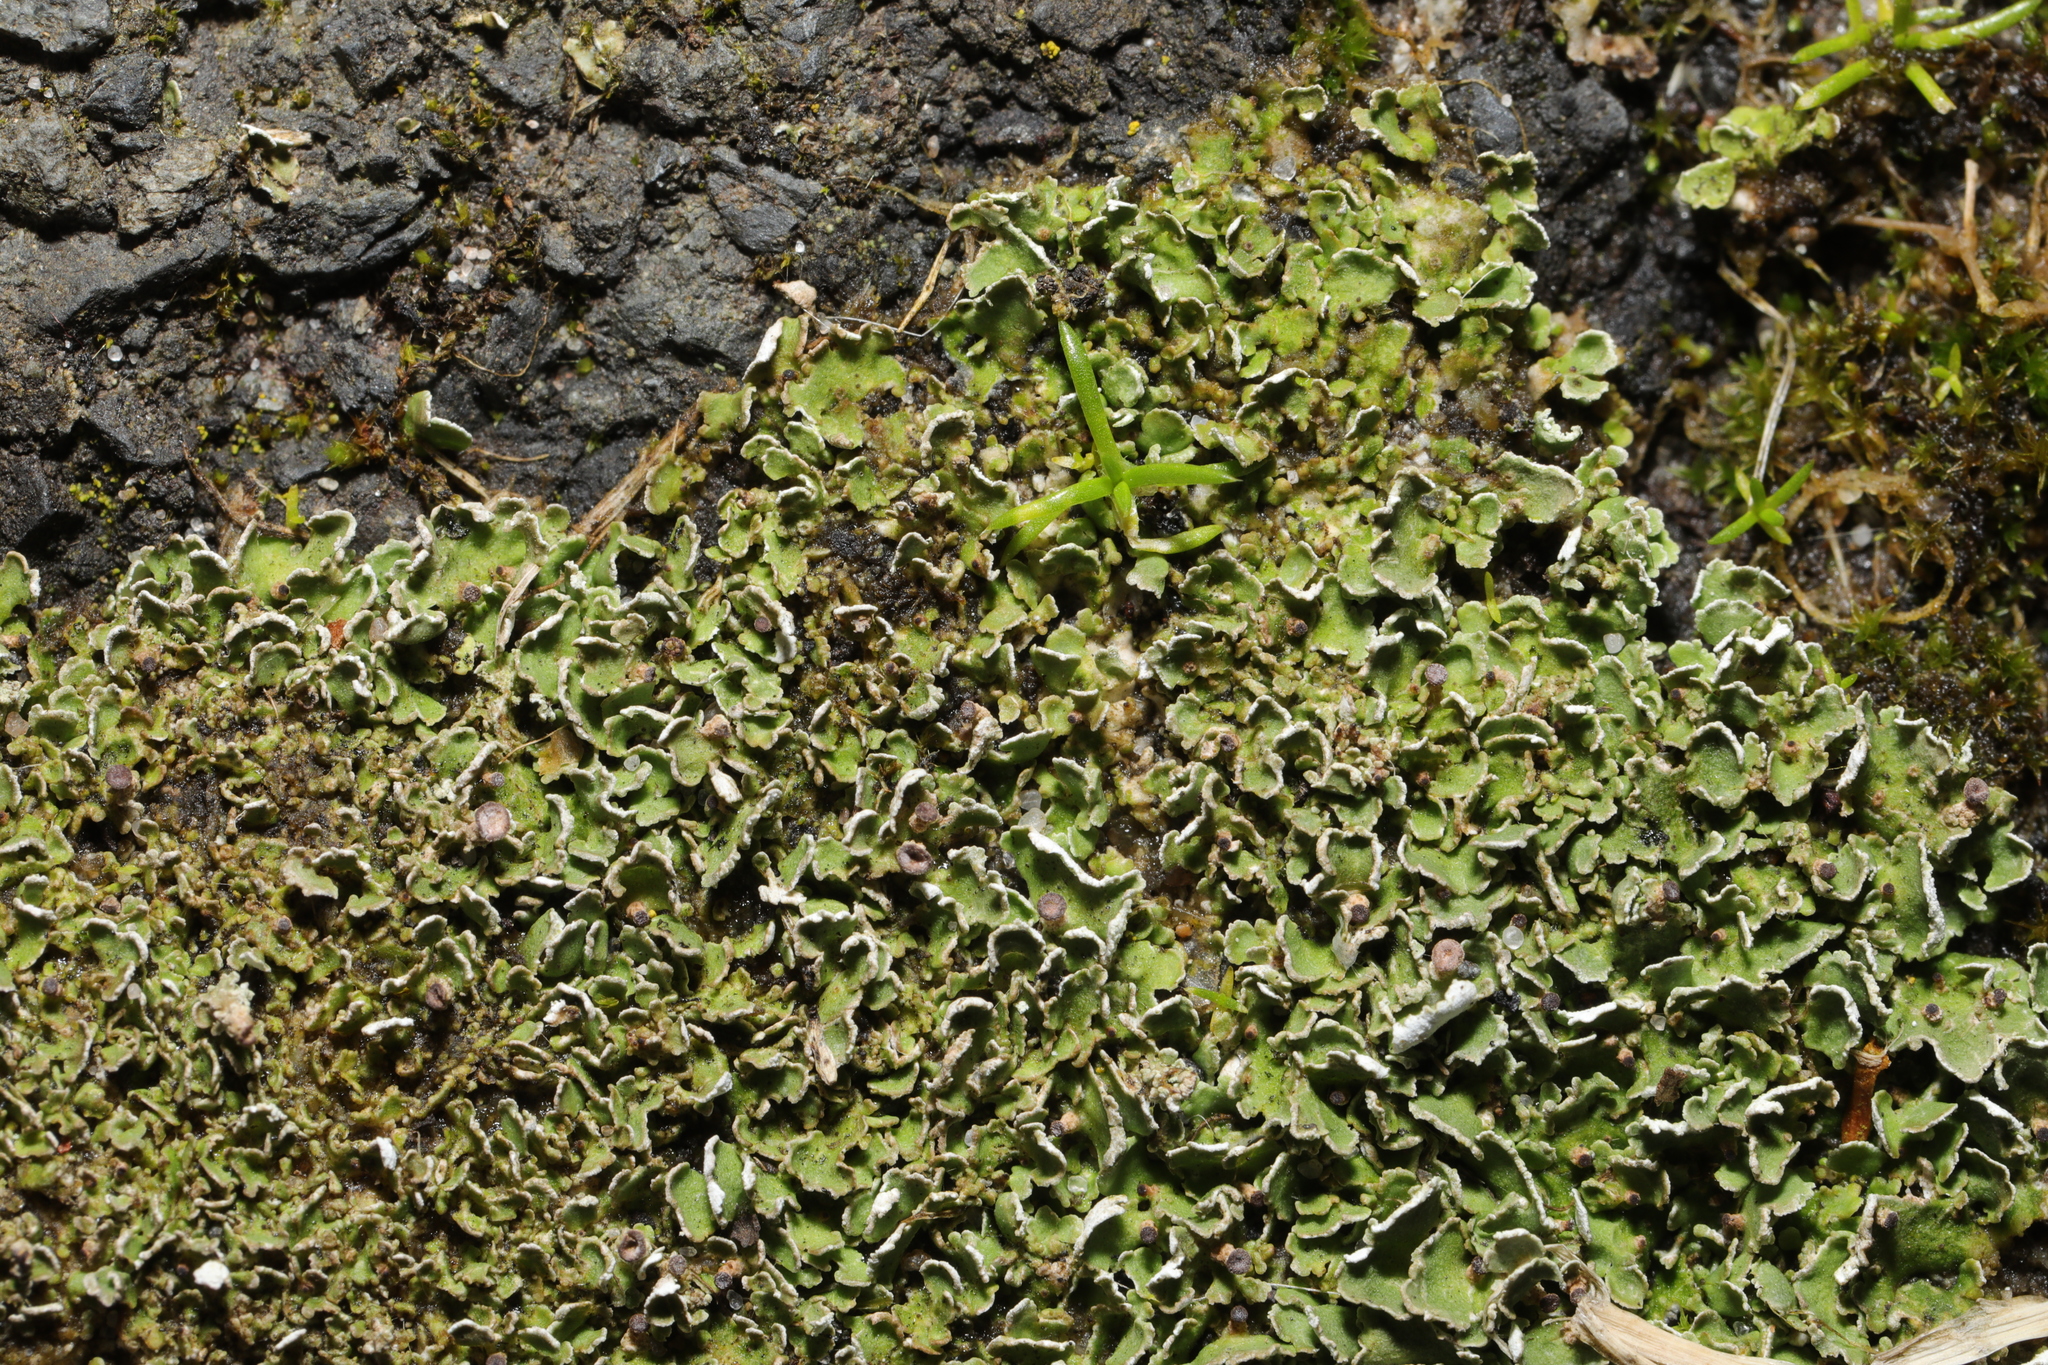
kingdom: Fungi
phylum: Ascomycota
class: Lecanoromycetes
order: Lecanorales
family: Cladoniaceae
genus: Cladonia
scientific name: Cladonia
